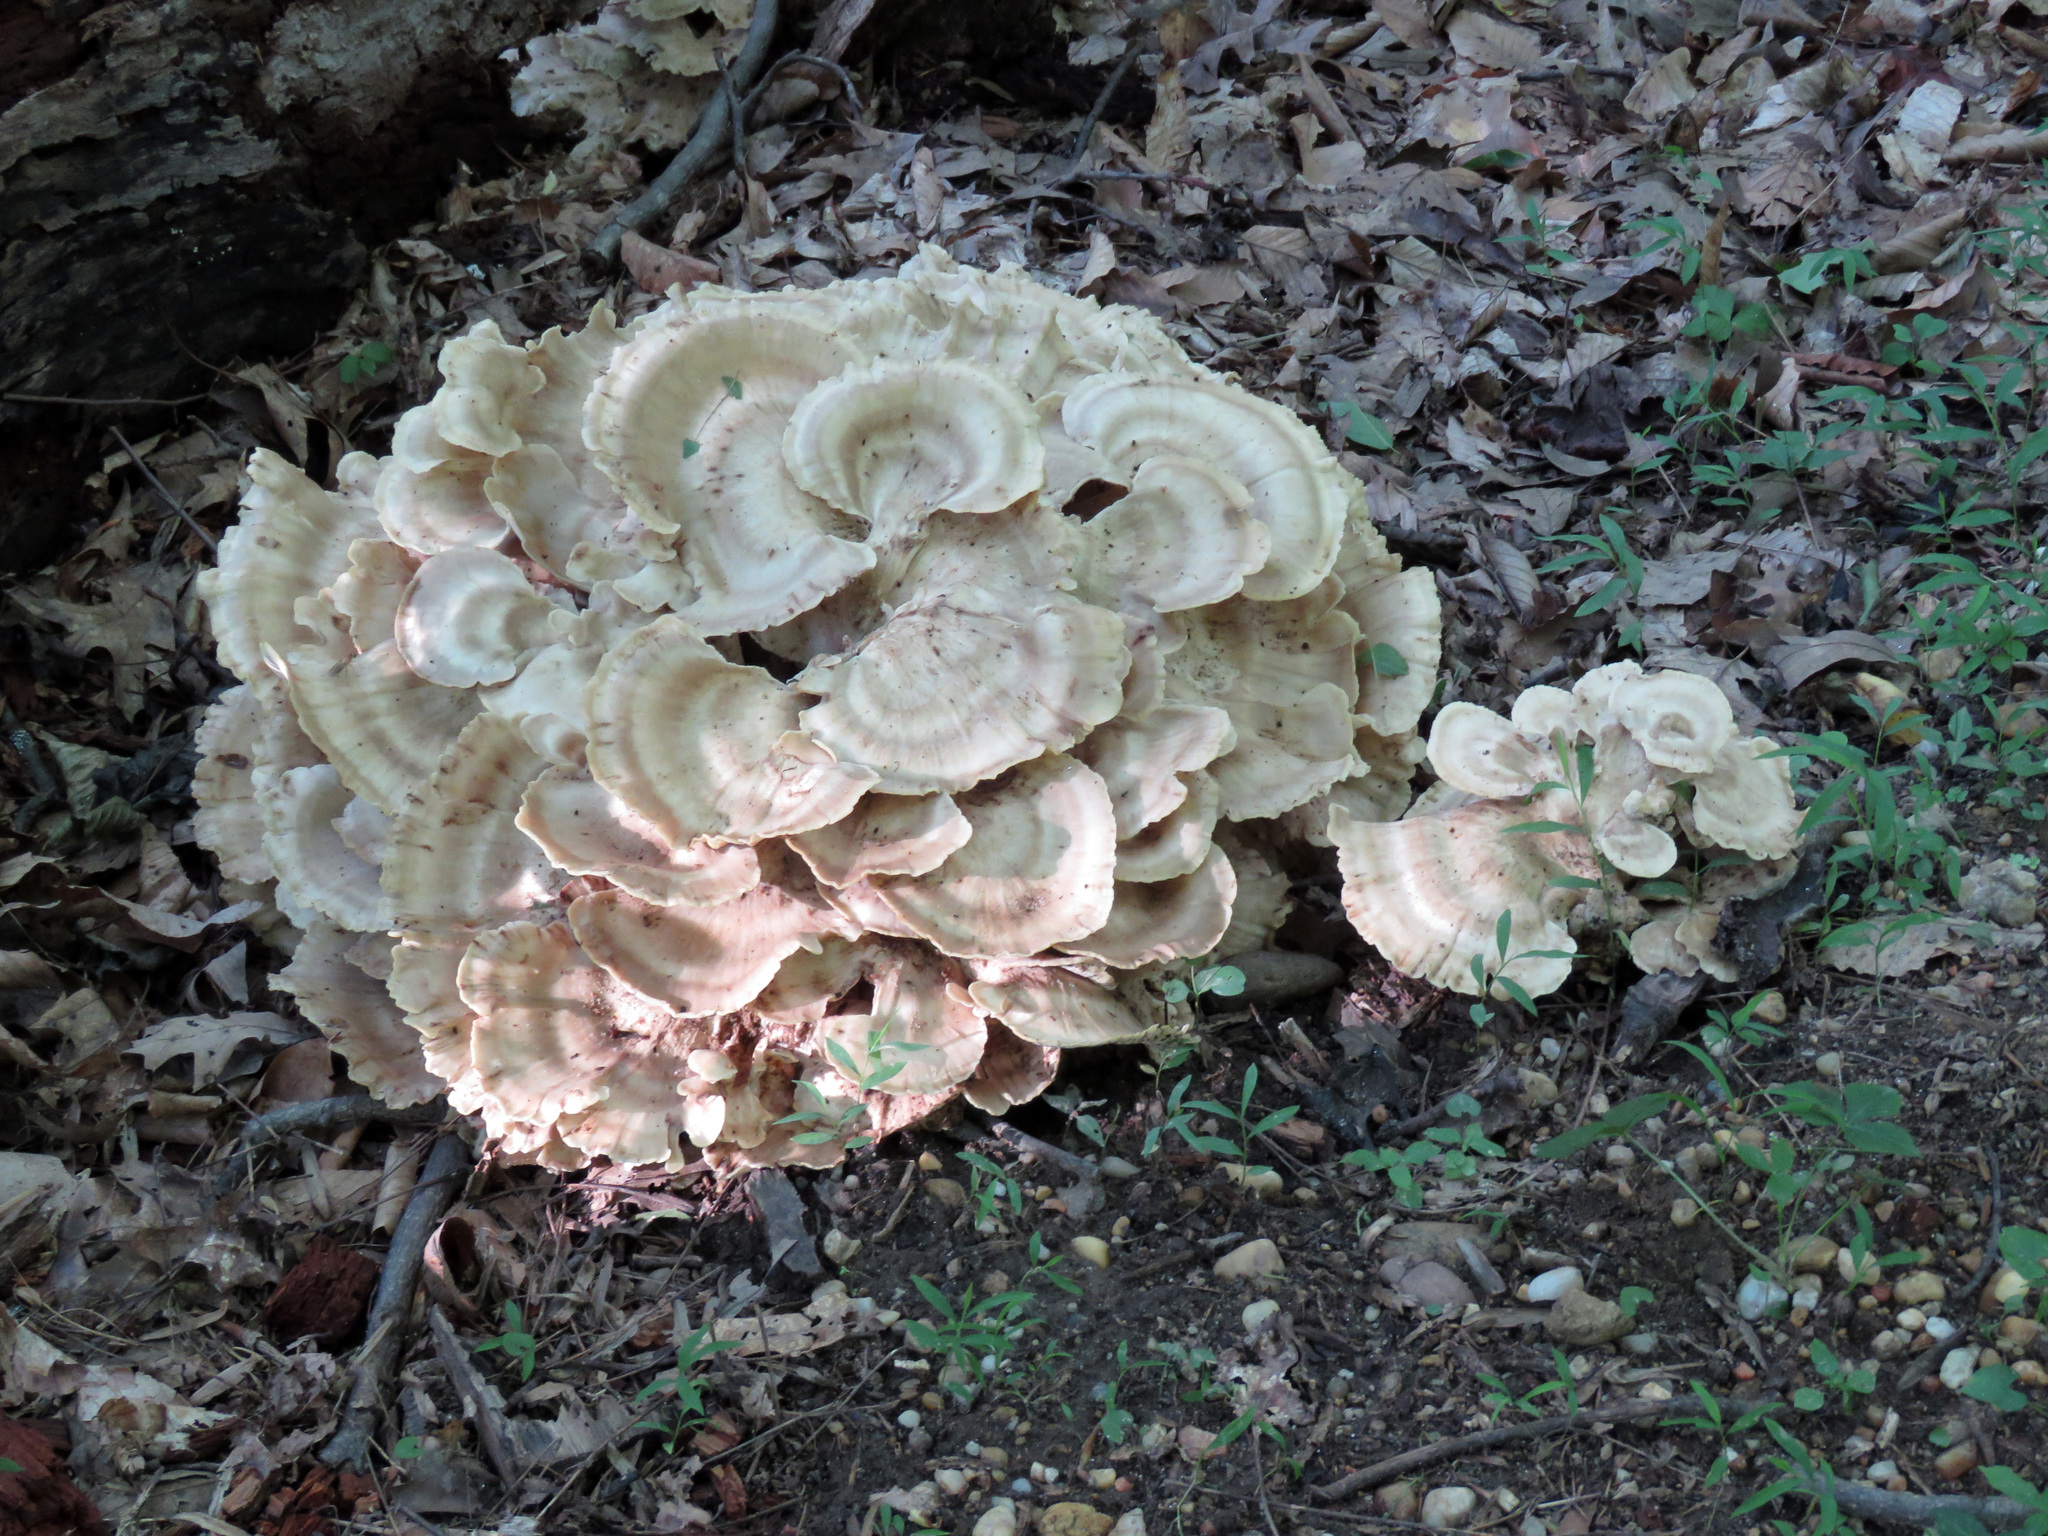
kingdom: Fungi
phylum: Basidiomycota
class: Agaricomycetes
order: Polyporales
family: Meripilaceae
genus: Meripilus
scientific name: Meripilus sumstinei
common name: Black-staining polypore
